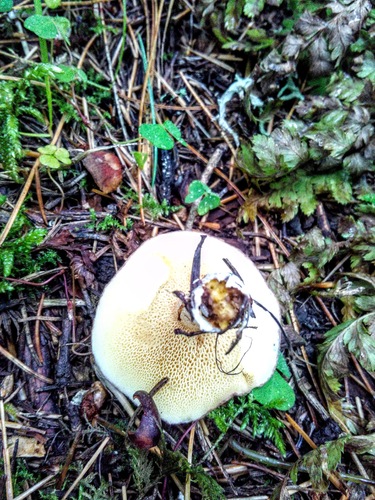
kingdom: Fungi
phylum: Basidiomycota
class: Agaricomycetes
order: Boletales
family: Suillaceae
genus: Suillus
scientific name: Suillus placidus
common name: Slippery white bolete
